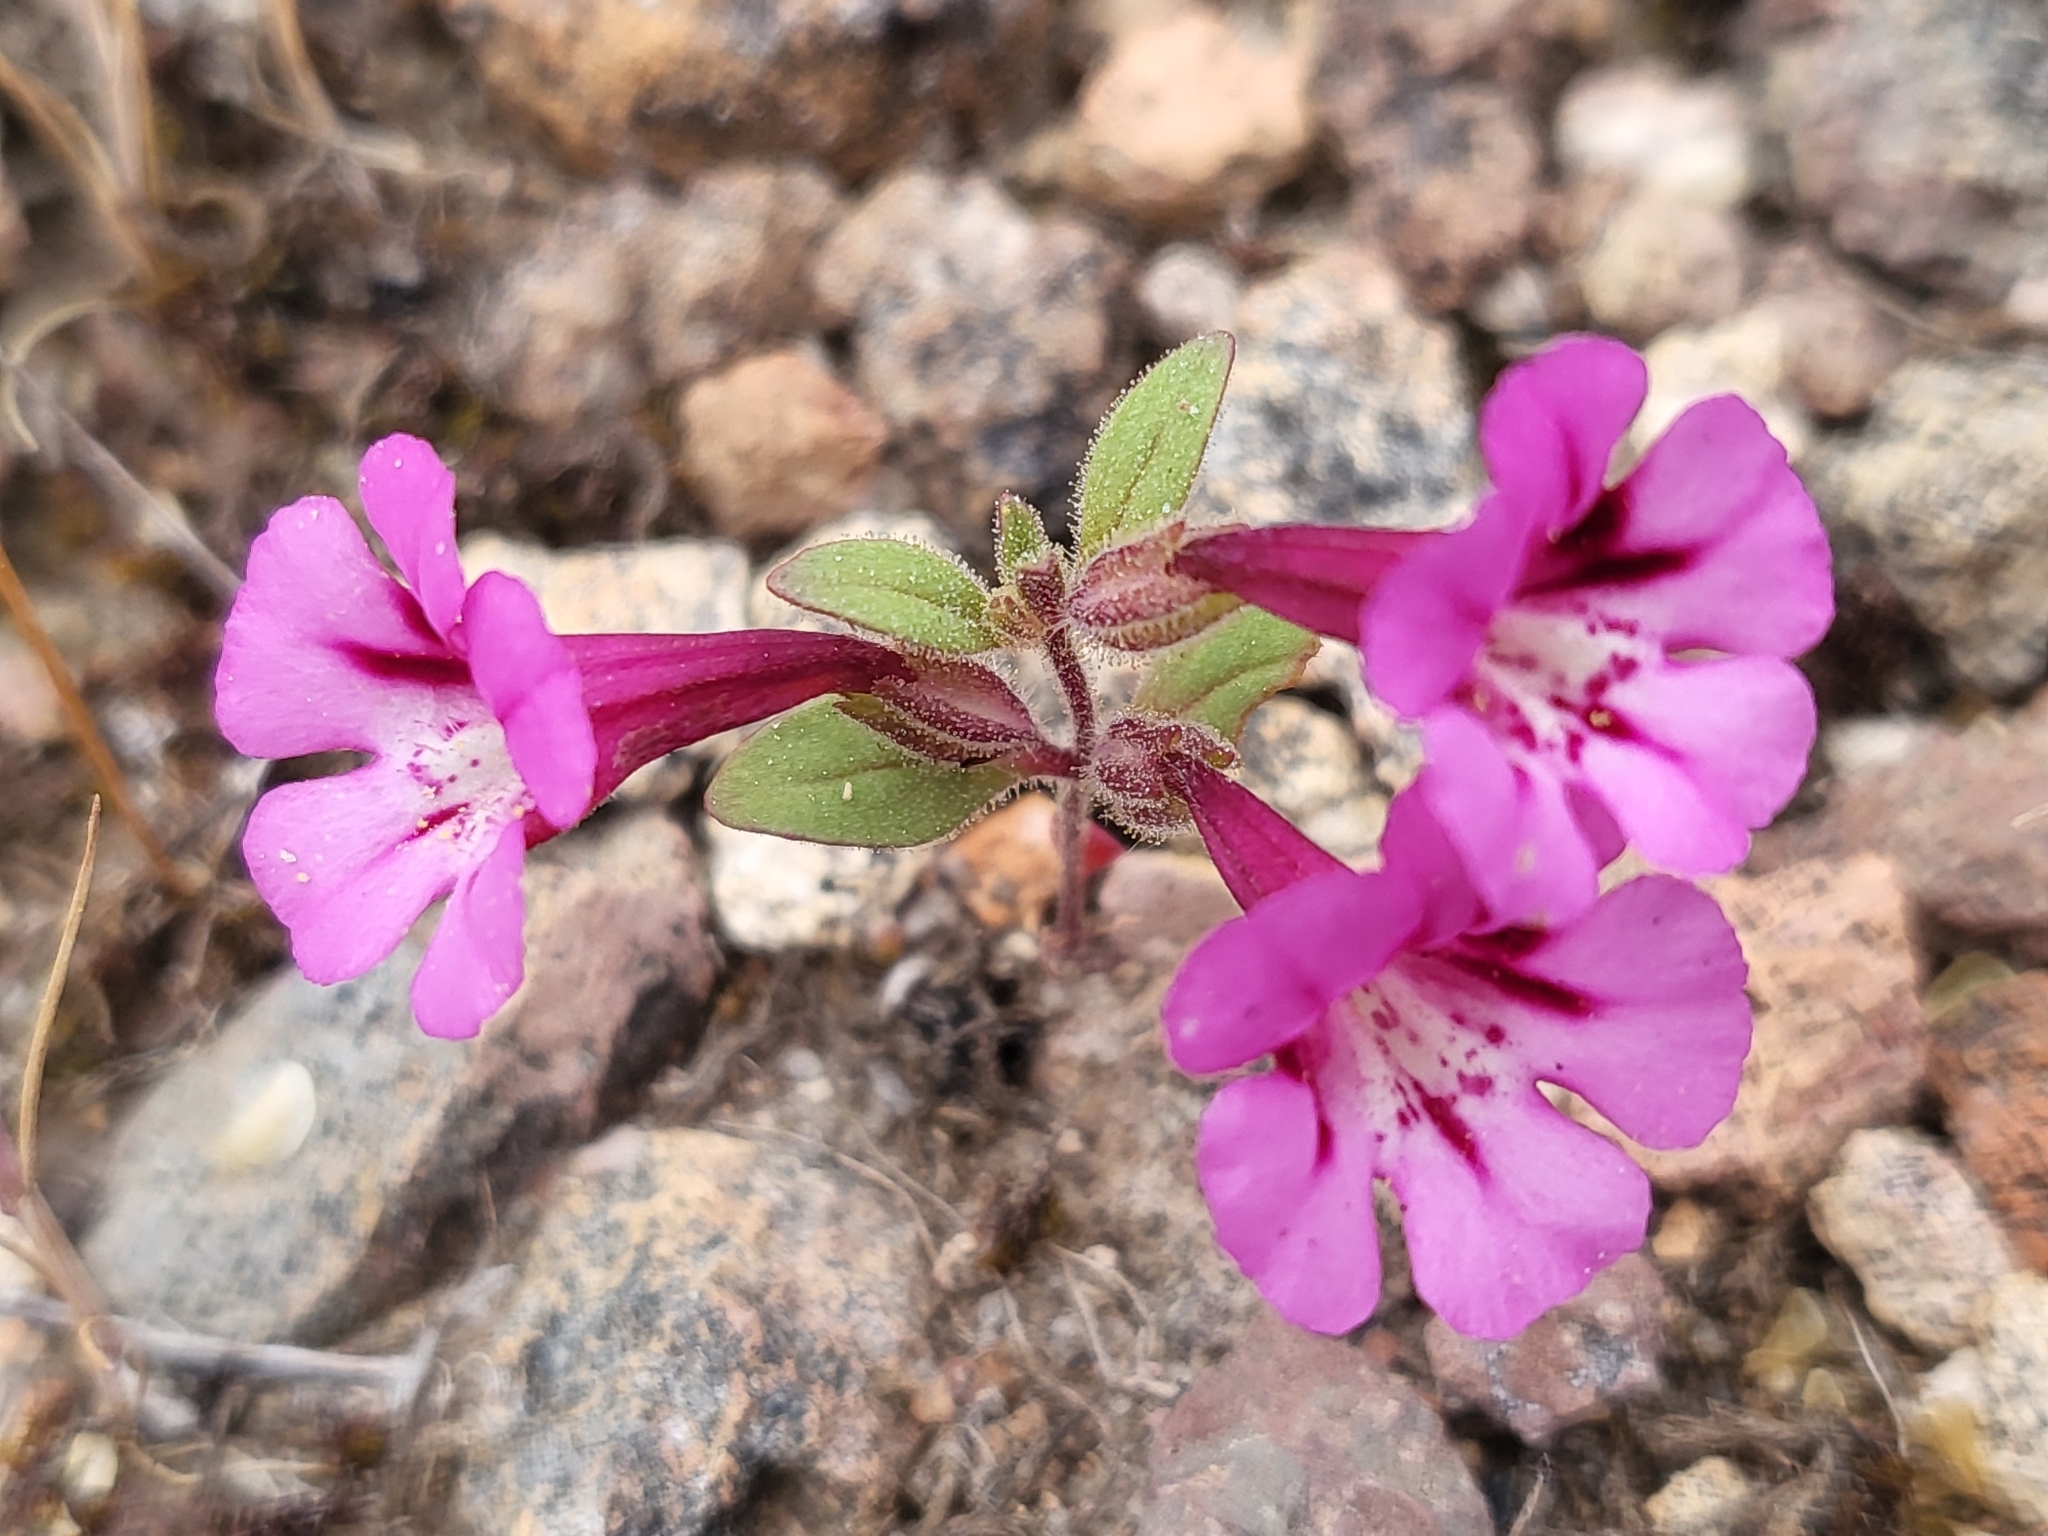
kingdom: Plantae
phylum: Tracheophyta
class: Magnoliopsida
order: Lamiales
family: Phrymaceae
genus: Diplacus
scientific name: Diplacus layneae
